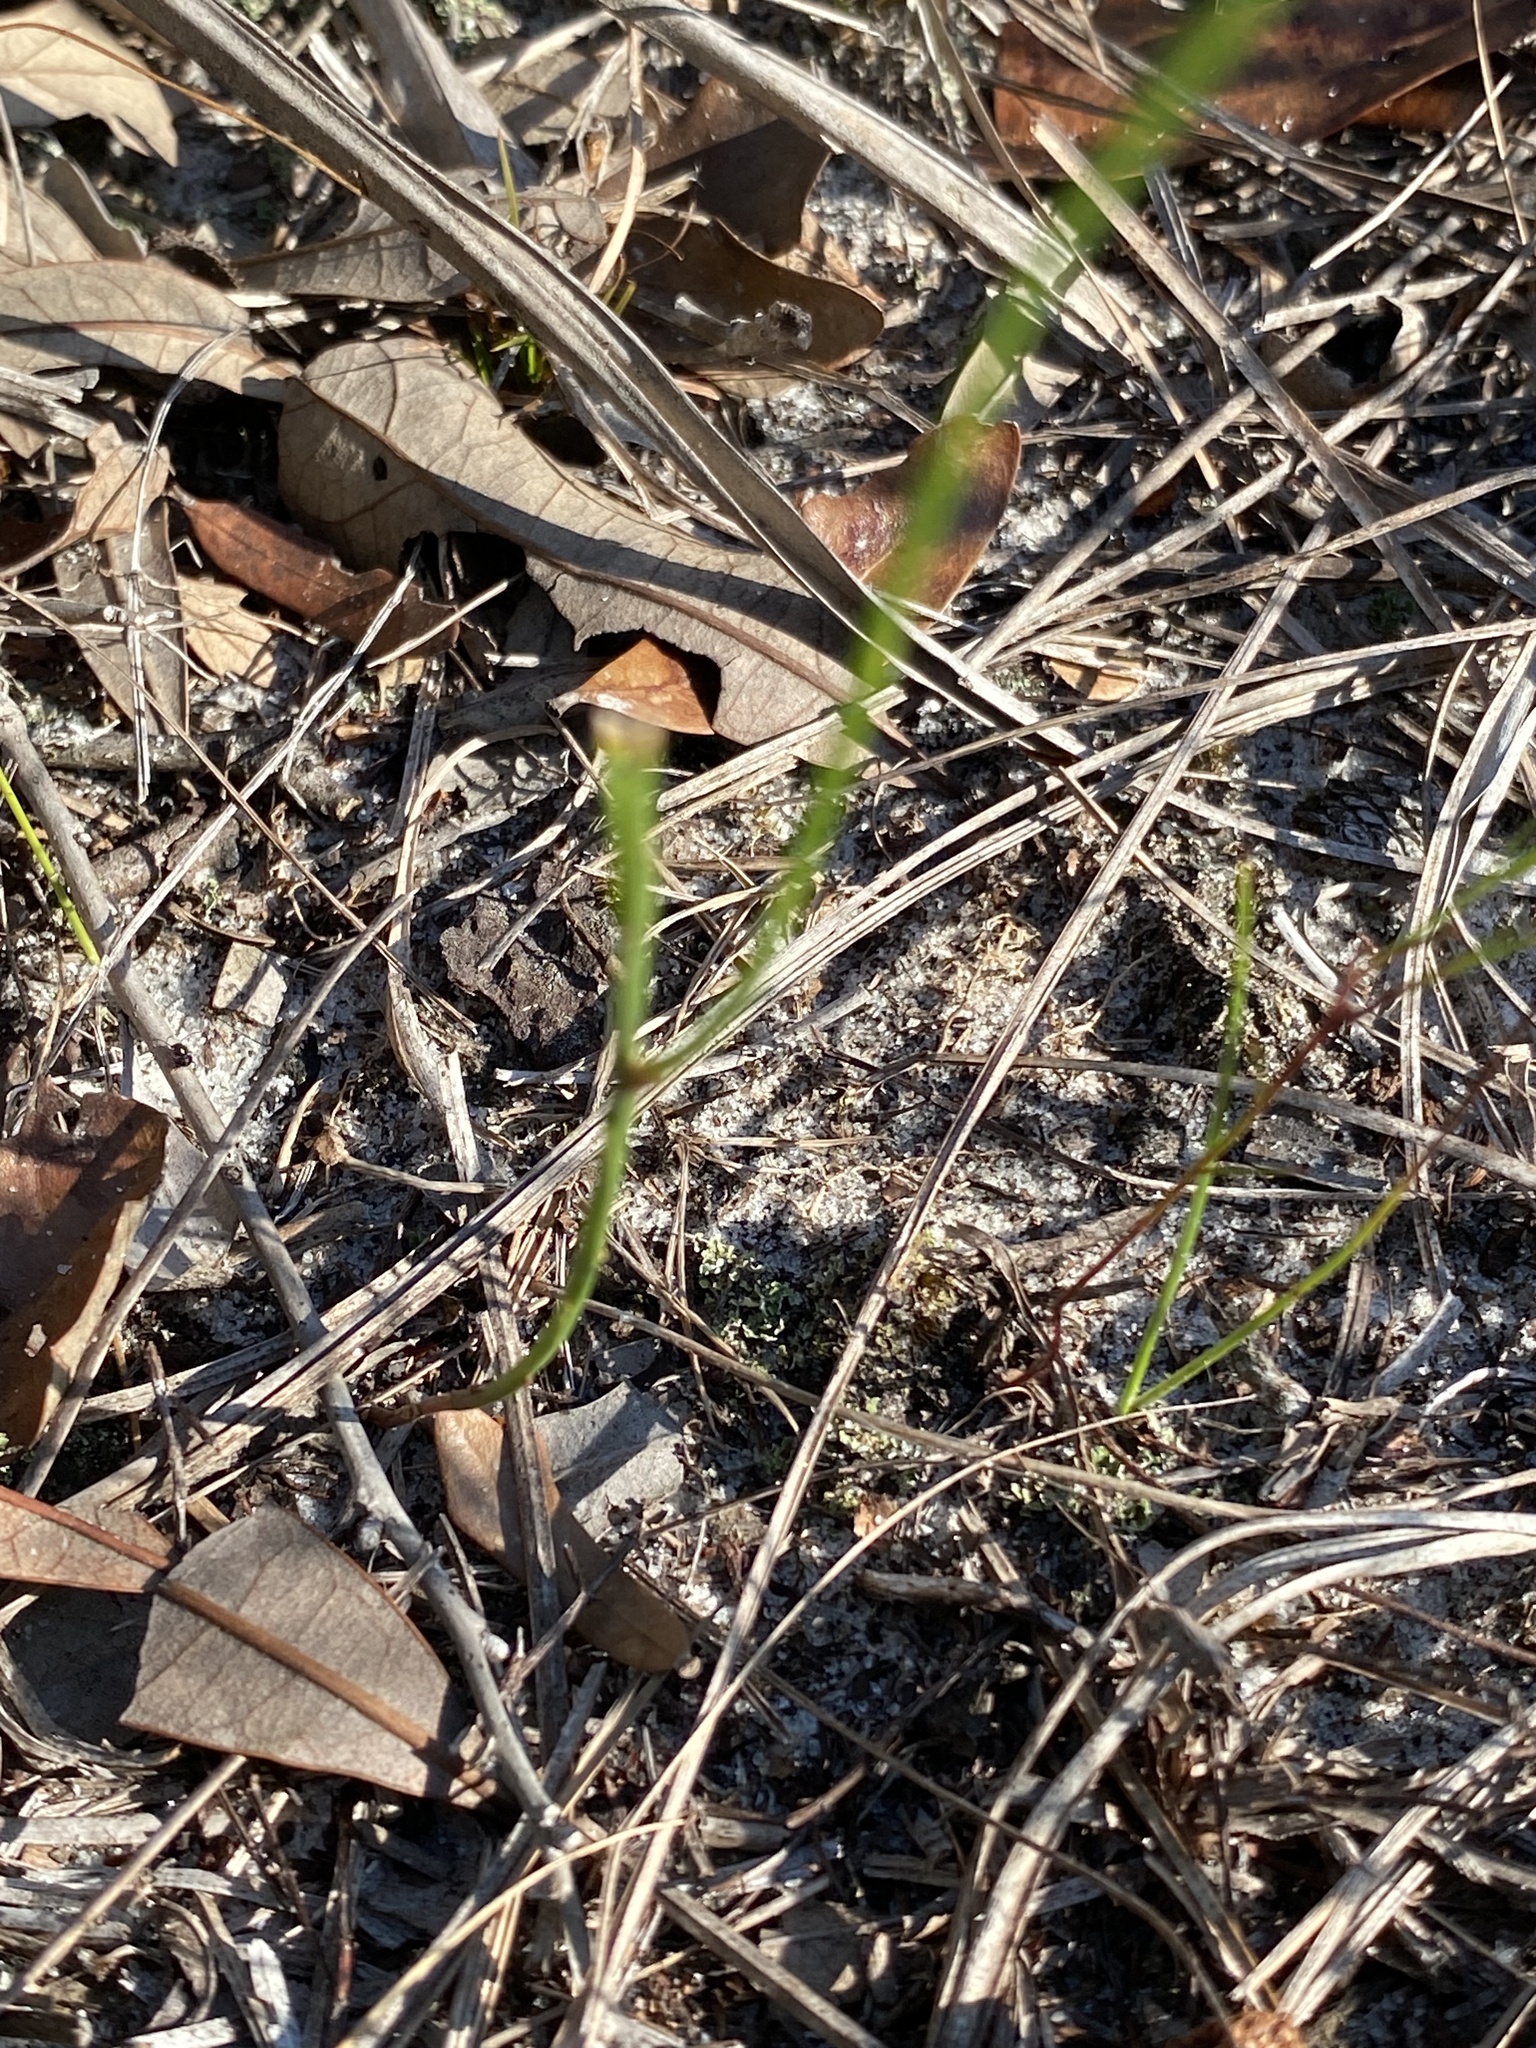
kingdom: Plantae
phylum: Tracheophyta
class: Magnoliopsida
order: Fabales
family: Polygalaceae
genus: Polygala
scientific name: Polygala setacea
